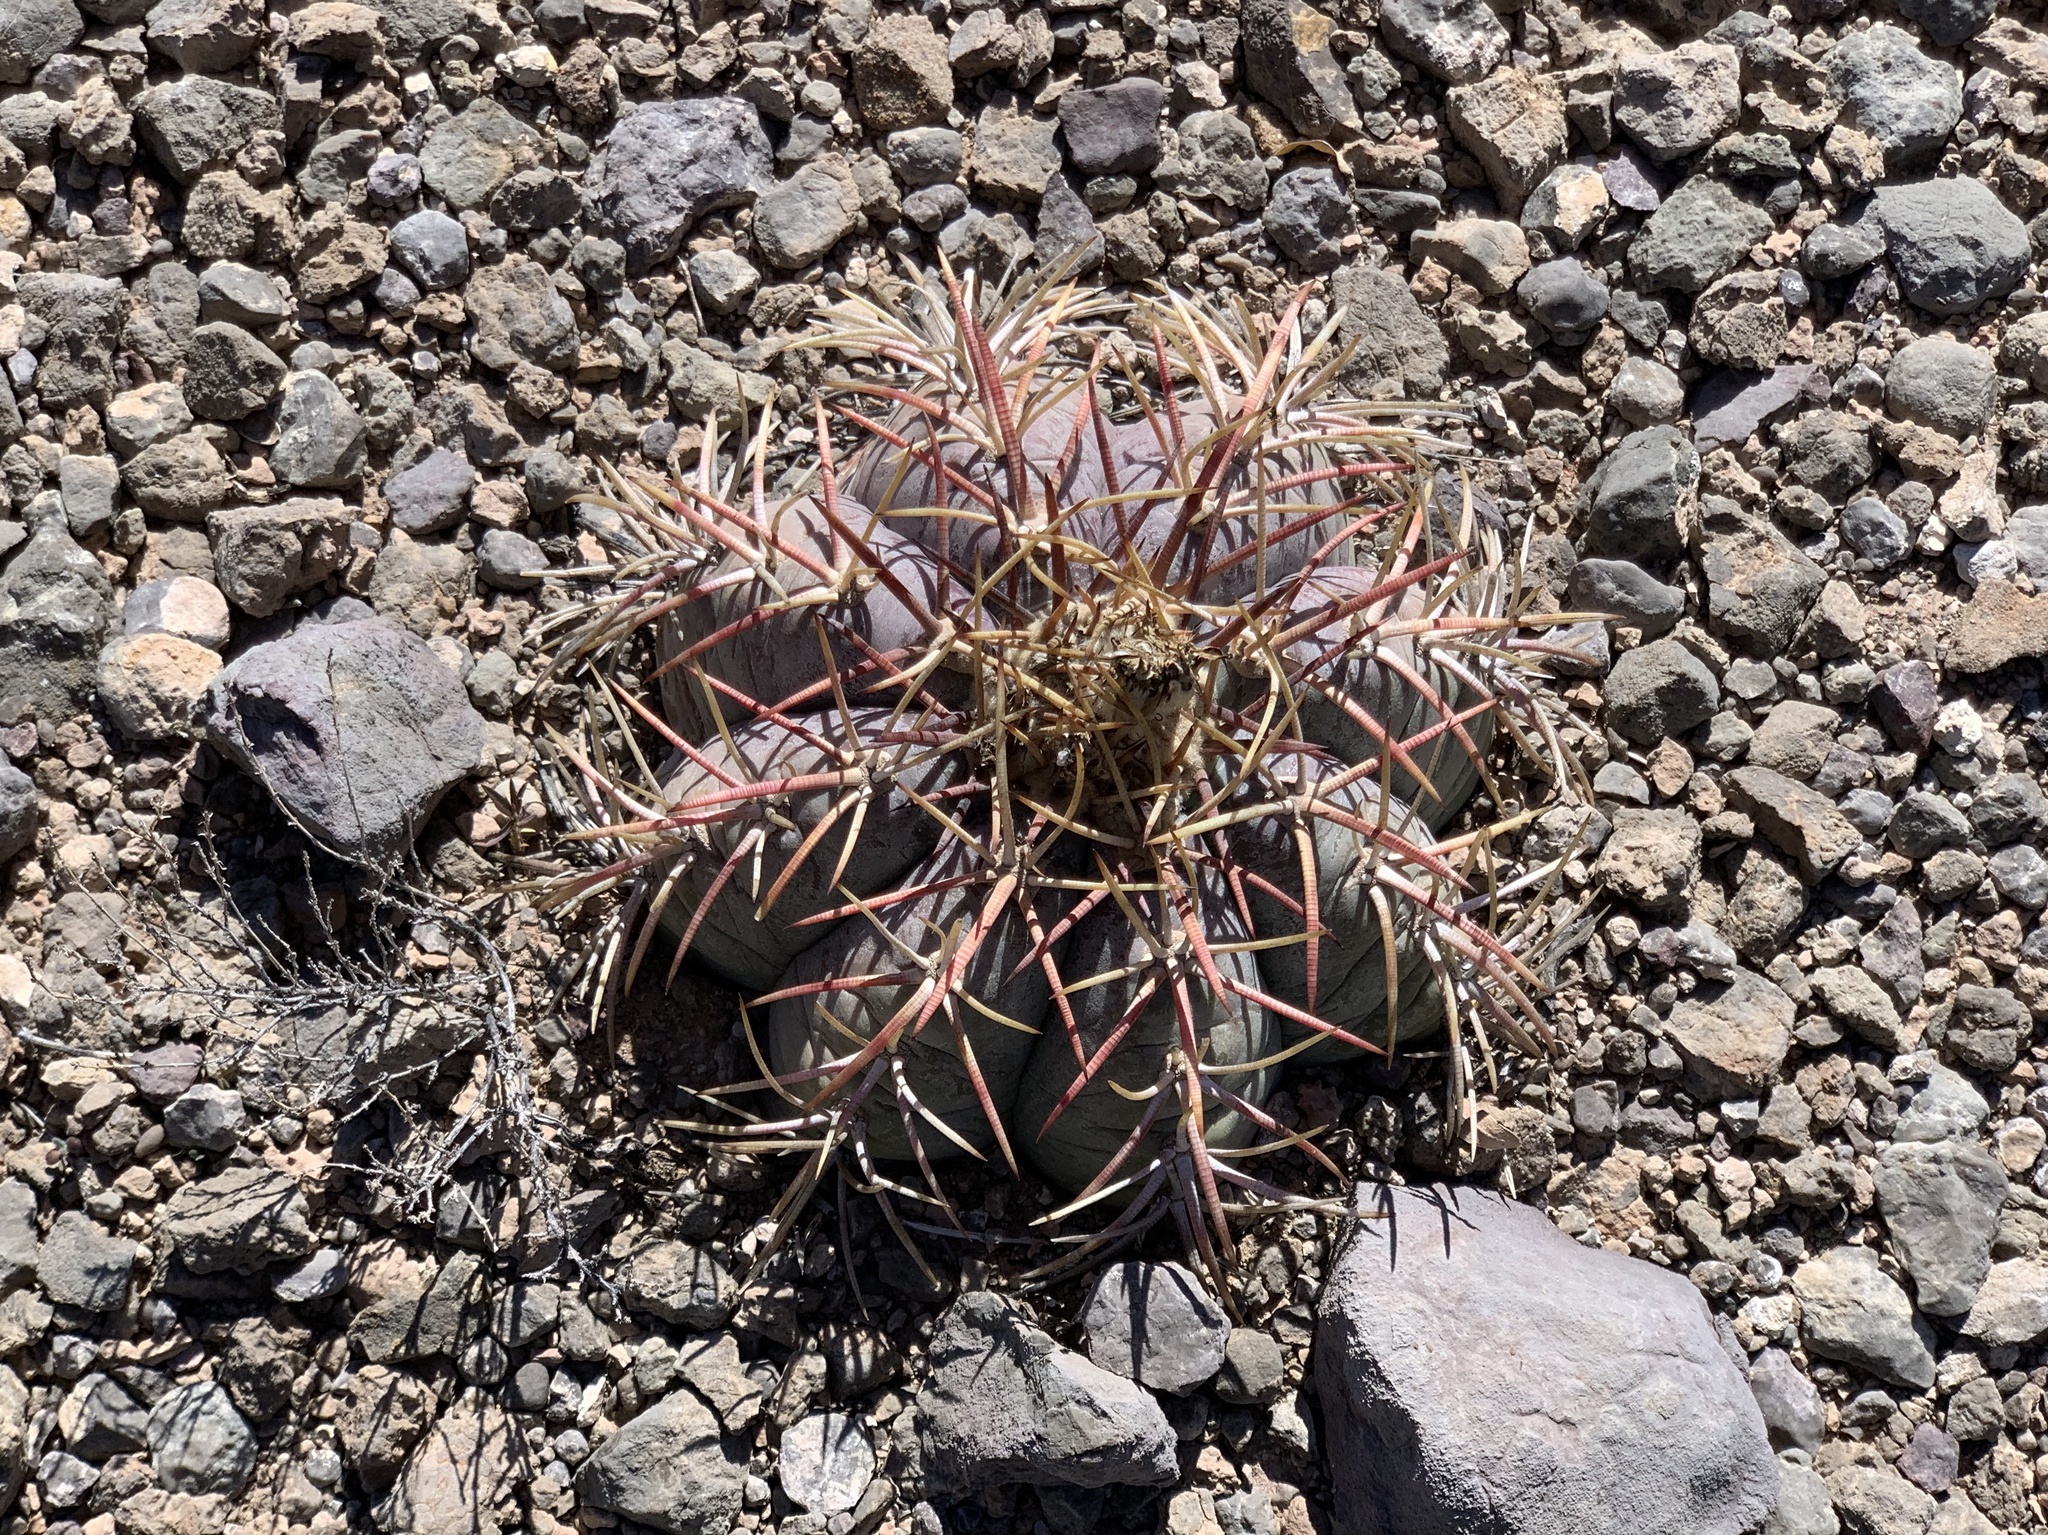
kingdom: Plantae
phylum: Tracheophyta
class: Magnoliopsida
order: Caryophyllales
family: Cactaceae
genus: Echinocactus
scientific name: Echinocactus horizonthalonius
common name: Devilshead
